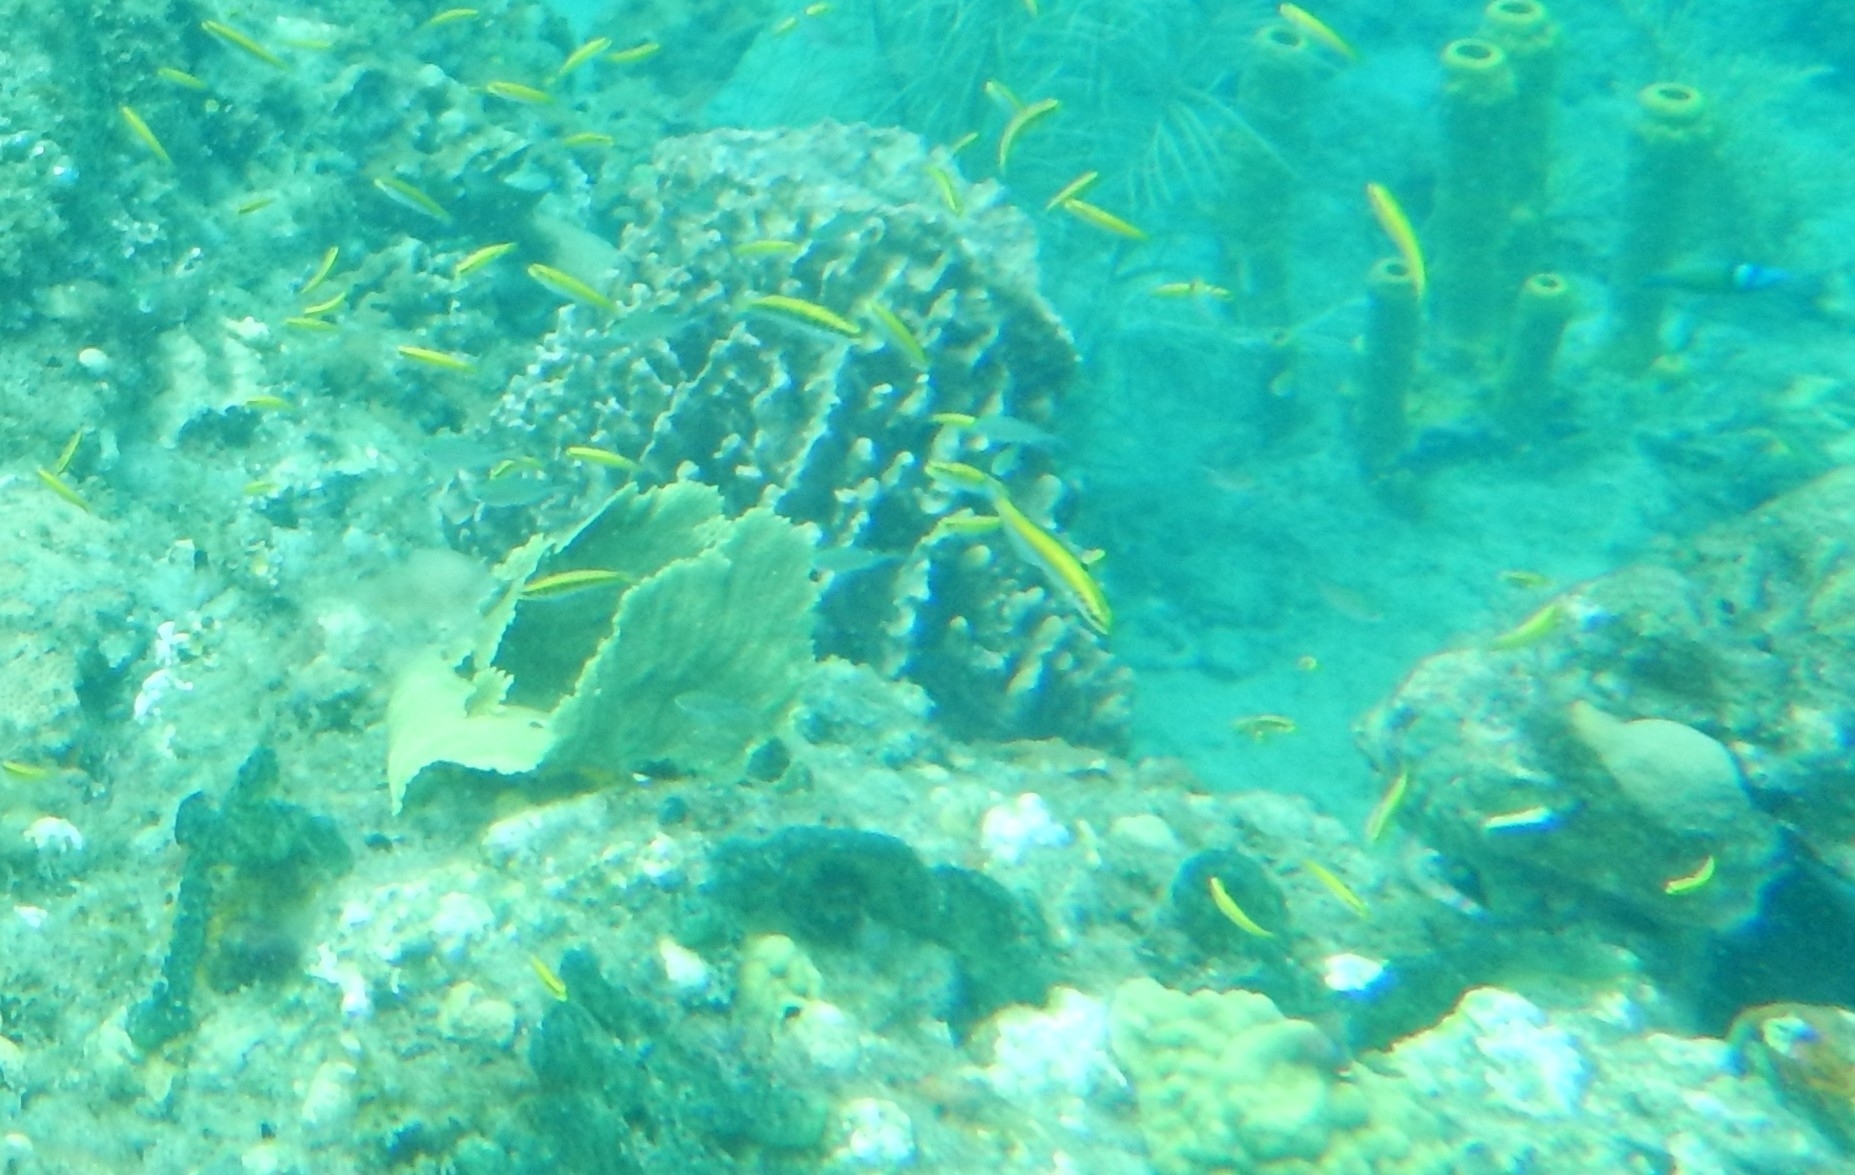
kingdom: Animalia
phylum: Chordata
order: Perciformes
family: Labridae
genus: Thalassoma
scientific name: Thalassoma bifasciatum
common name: Bluehead wrasse
